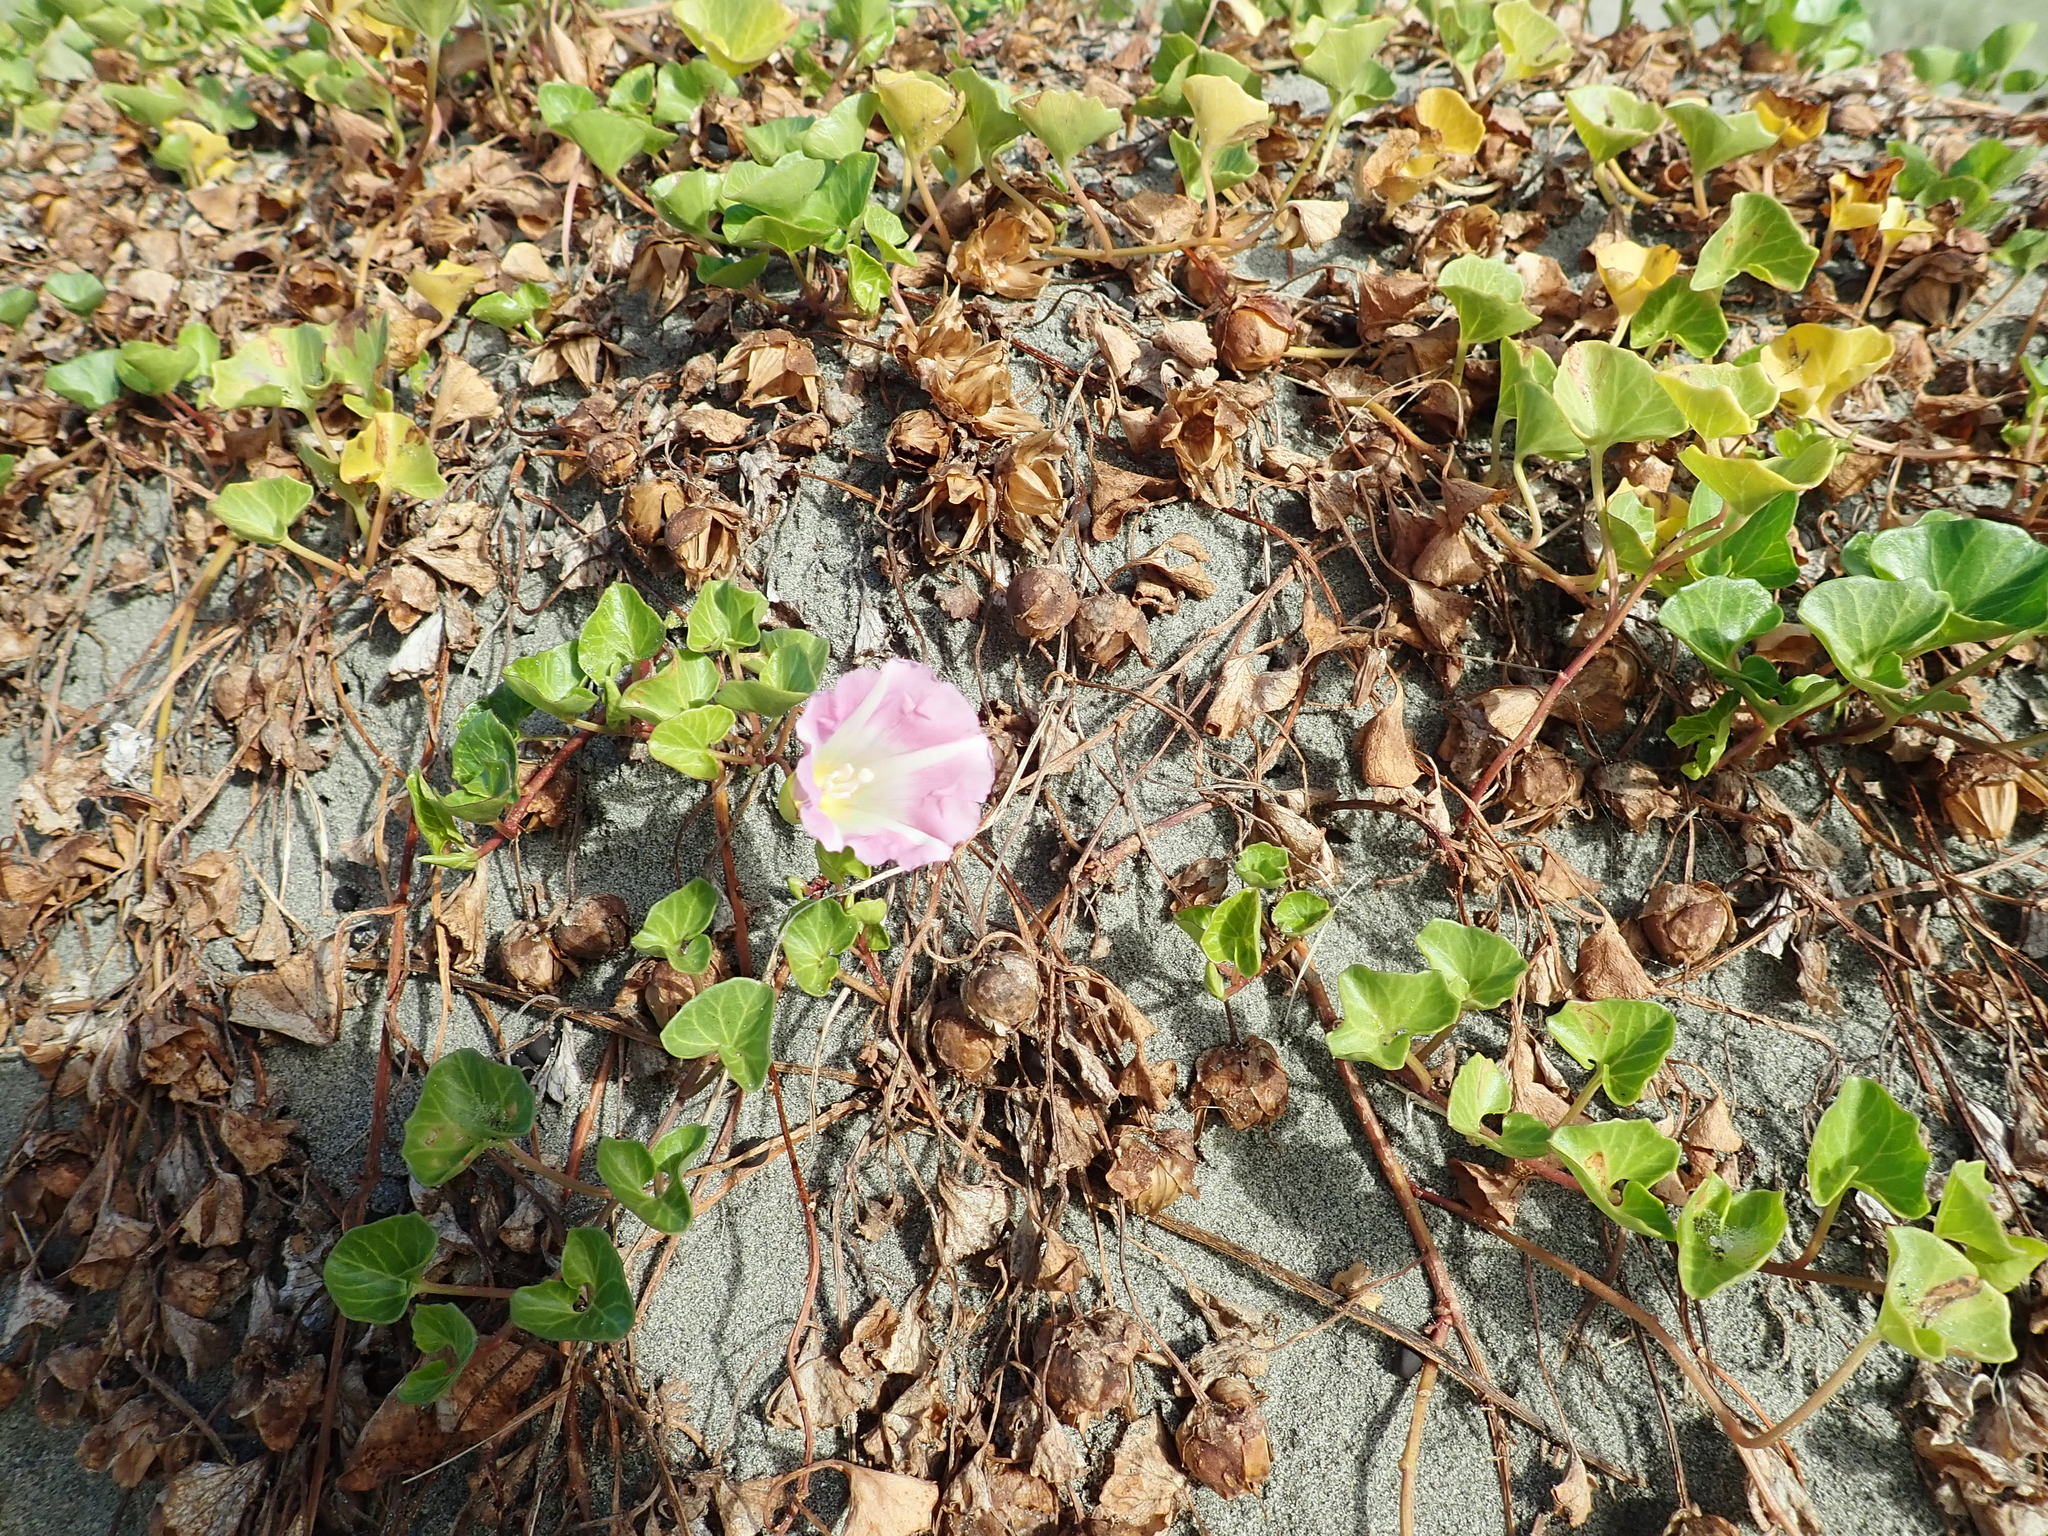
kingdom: Plantae
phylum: Tracheophyta
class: Magnoliopsida
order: Solanales
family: Convolvulaceae
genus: Calystegia
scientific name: Calystegia soldanella
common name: Sea bindweed
